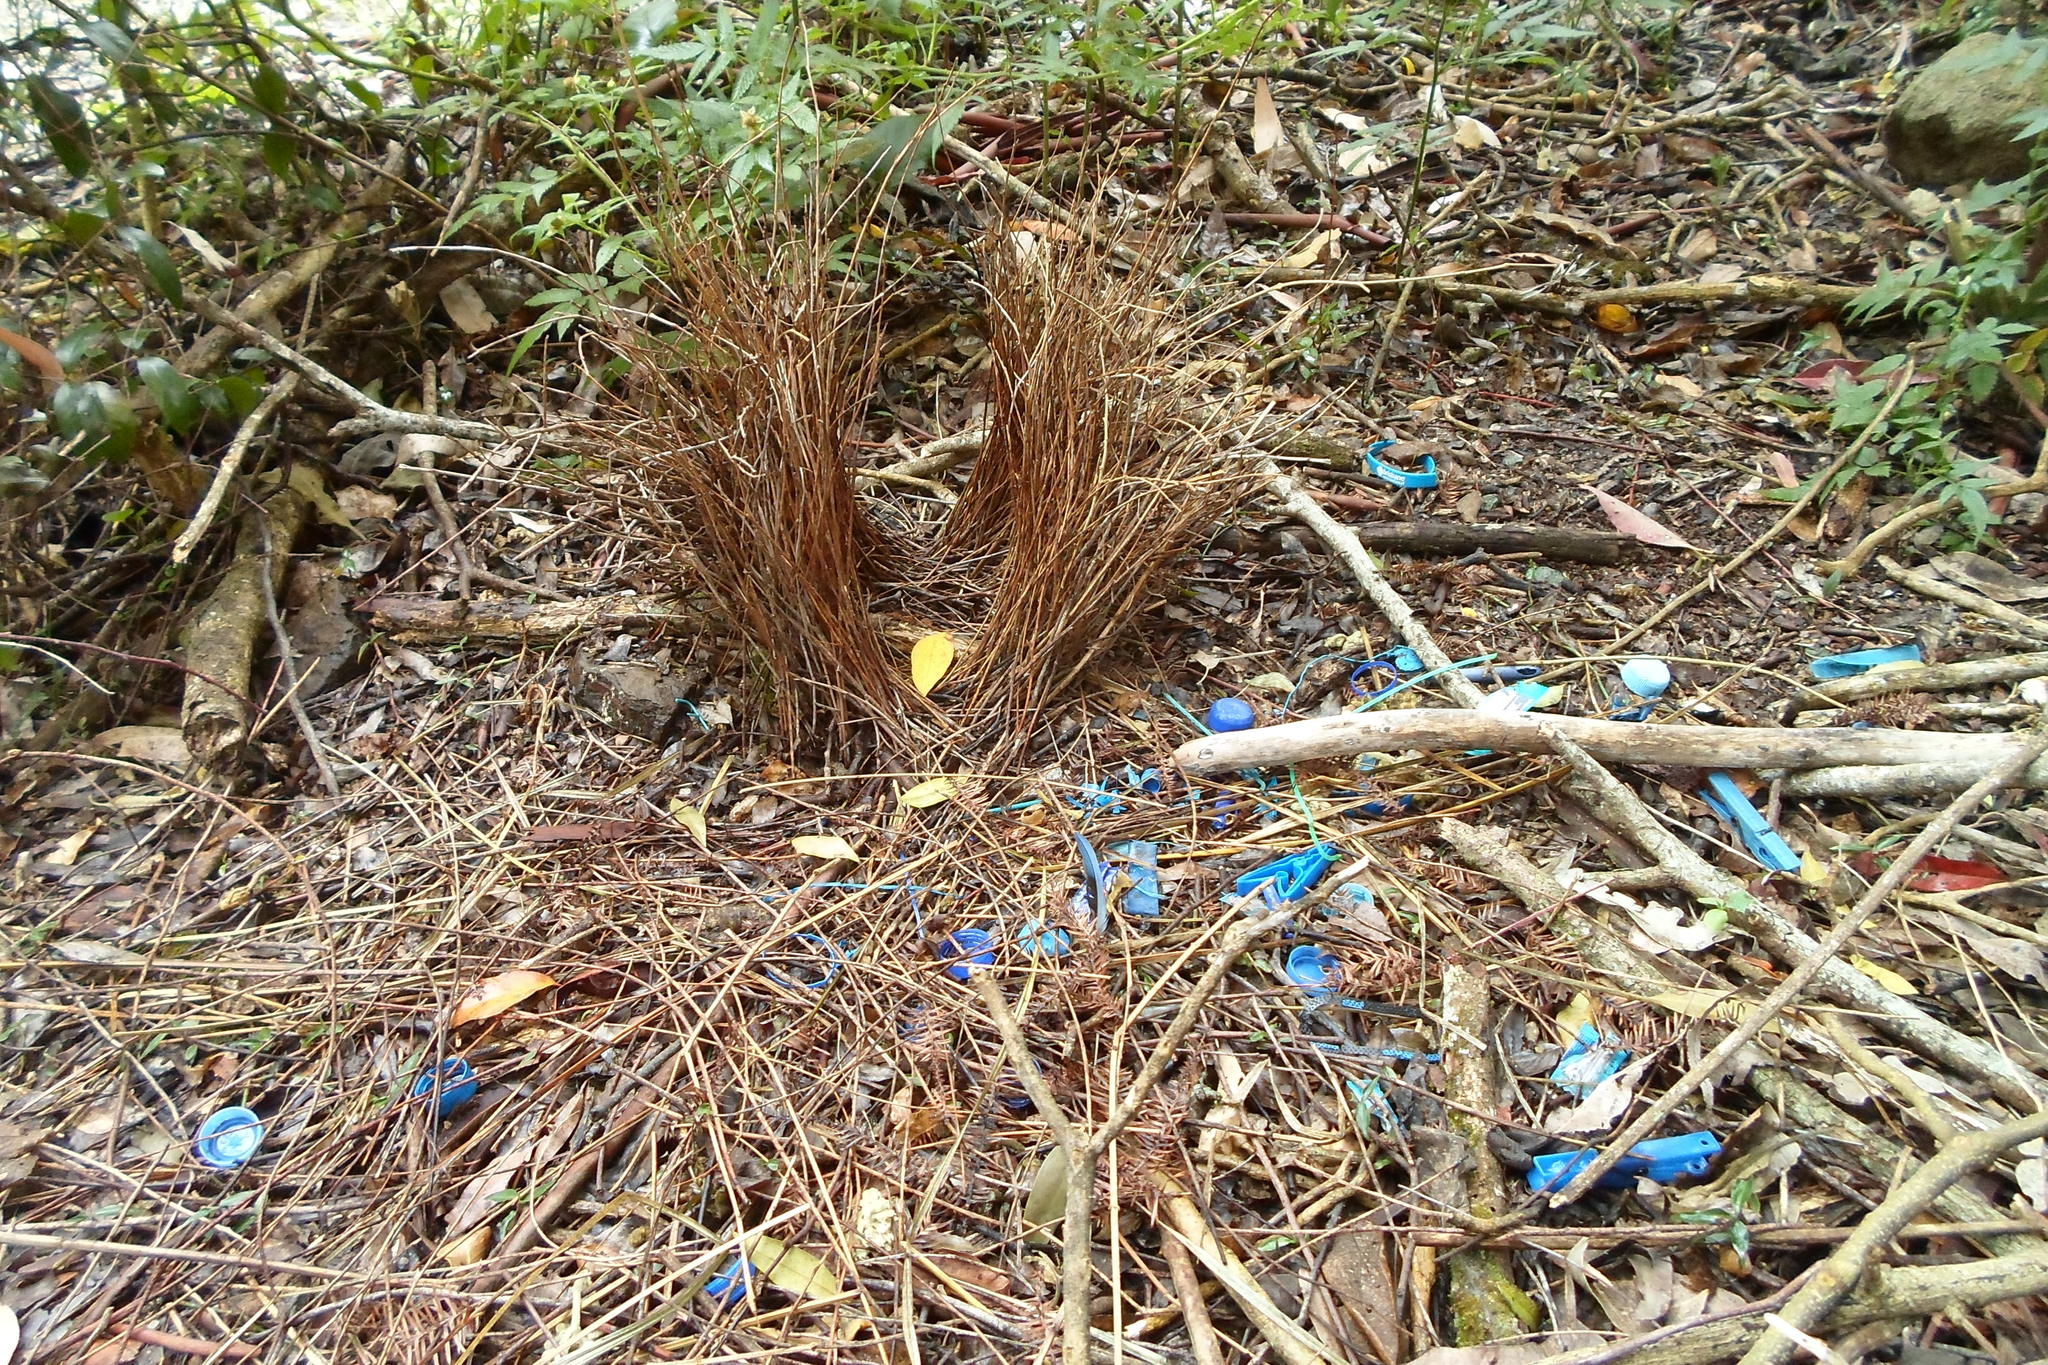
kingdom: Animalia
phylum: Chordata
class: Aves
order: Passeriformes
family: Ptilonorhynchidae
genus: Ptilonorhynchus
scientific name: Ptilonorhynchus violaceus
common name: Satin bowerbird
